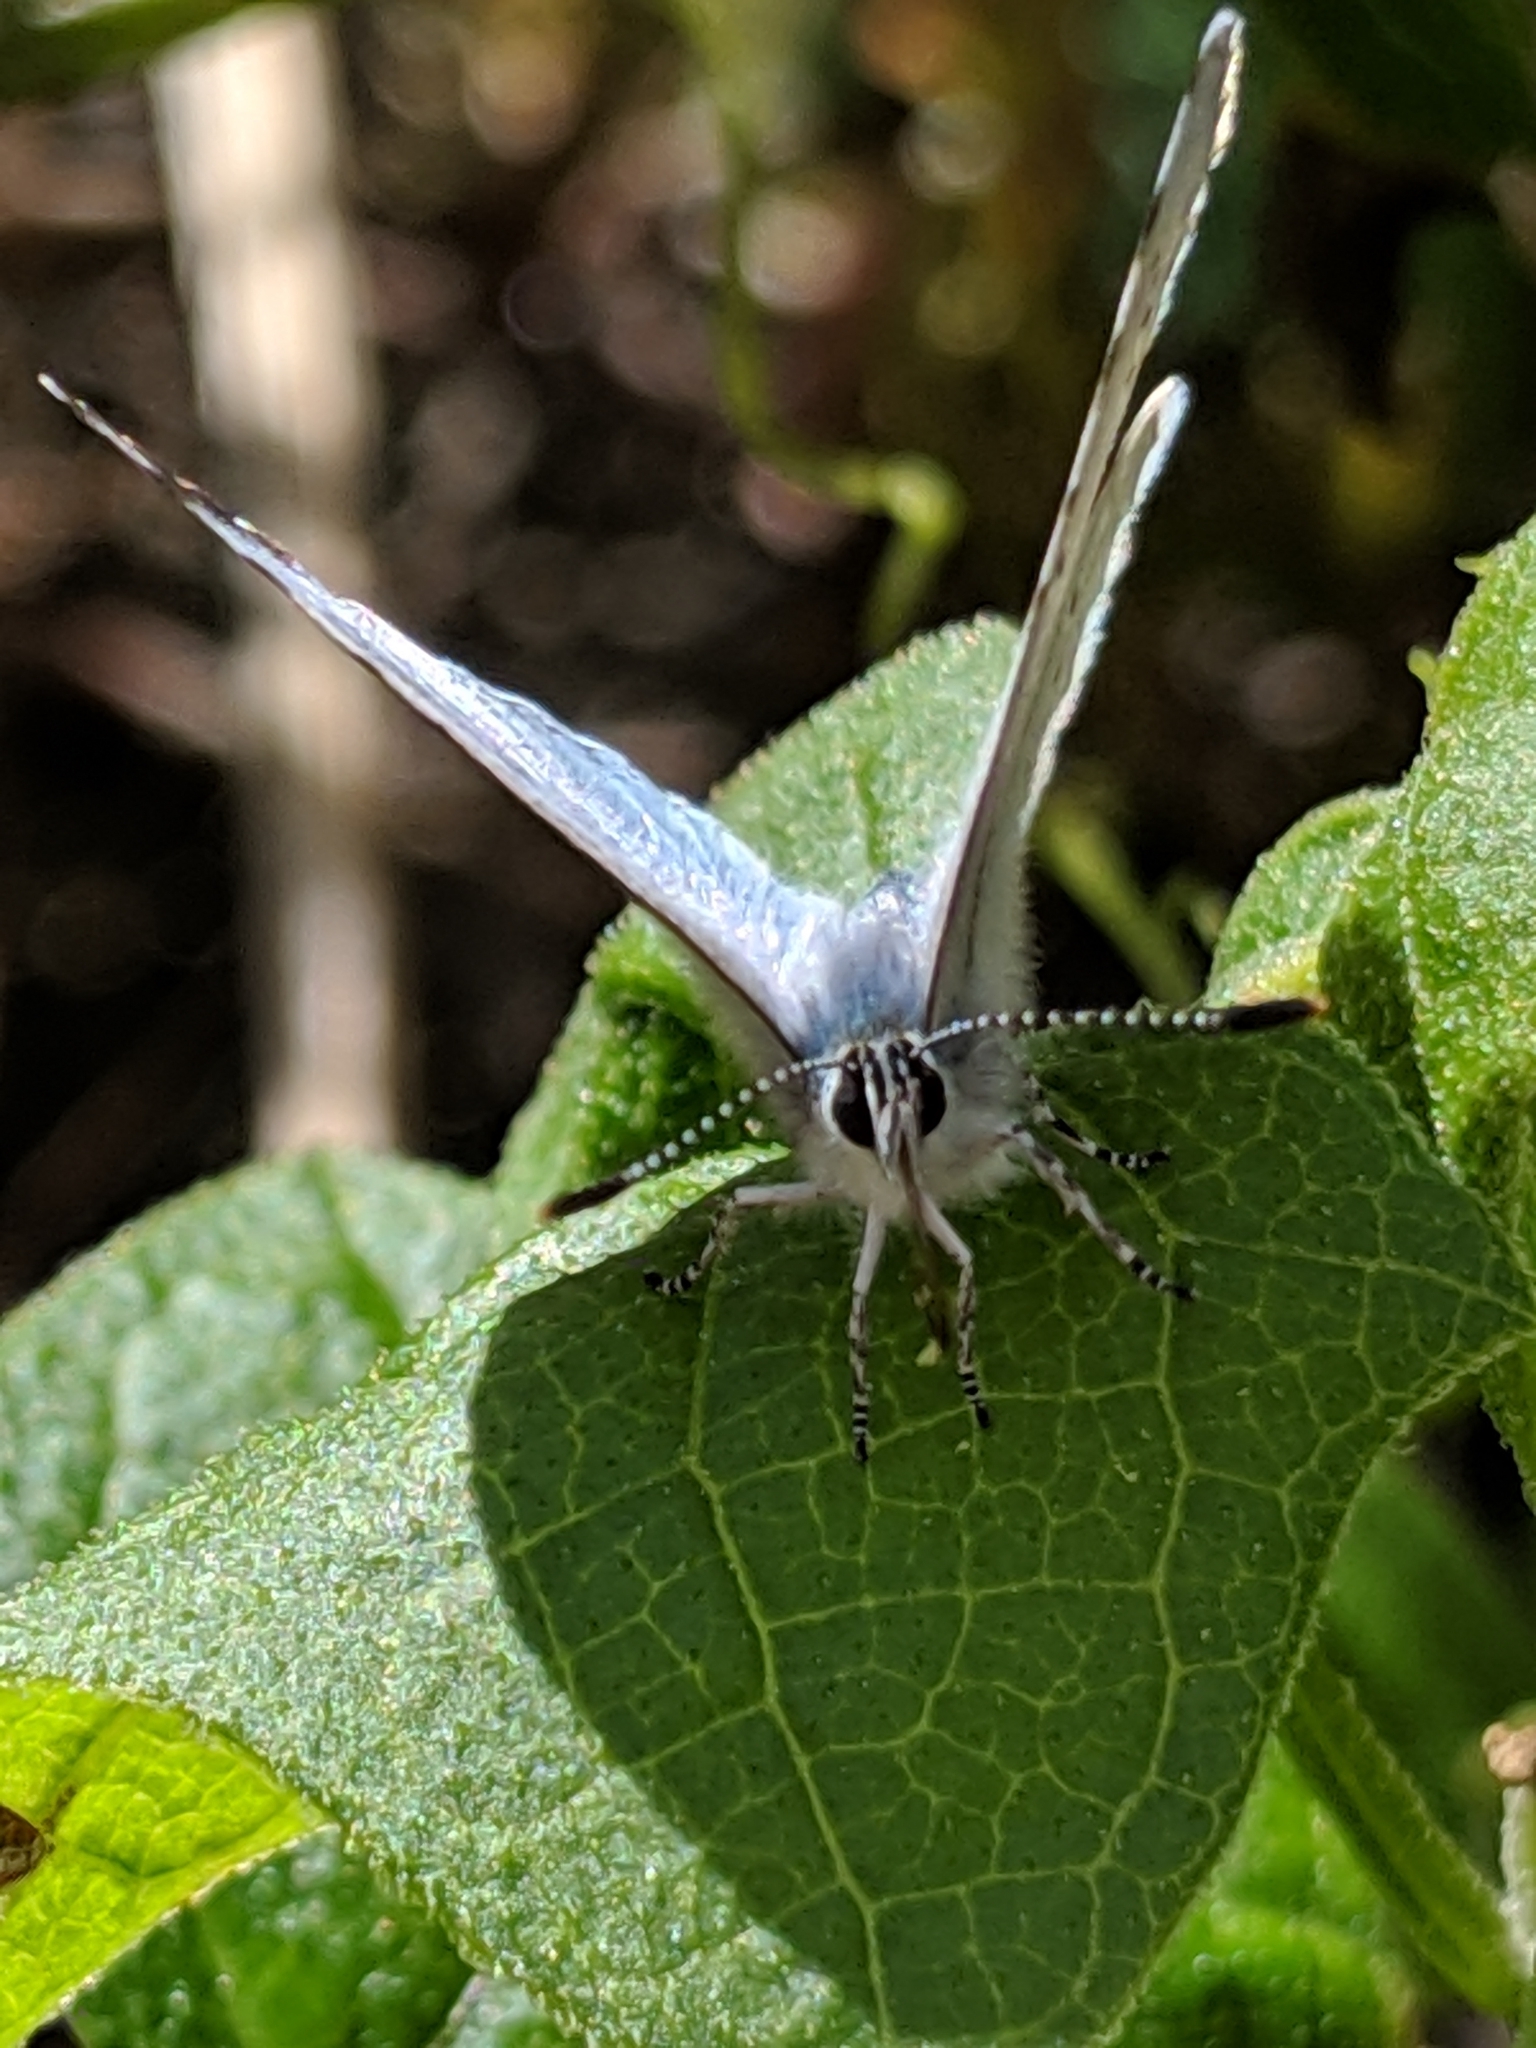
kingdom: Animalia
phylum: Arthropoda
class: Insecta
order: Lepidoptera
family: Lycaenidae
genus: Celastrina
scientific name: Celastrina ladon
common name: Spring azure
